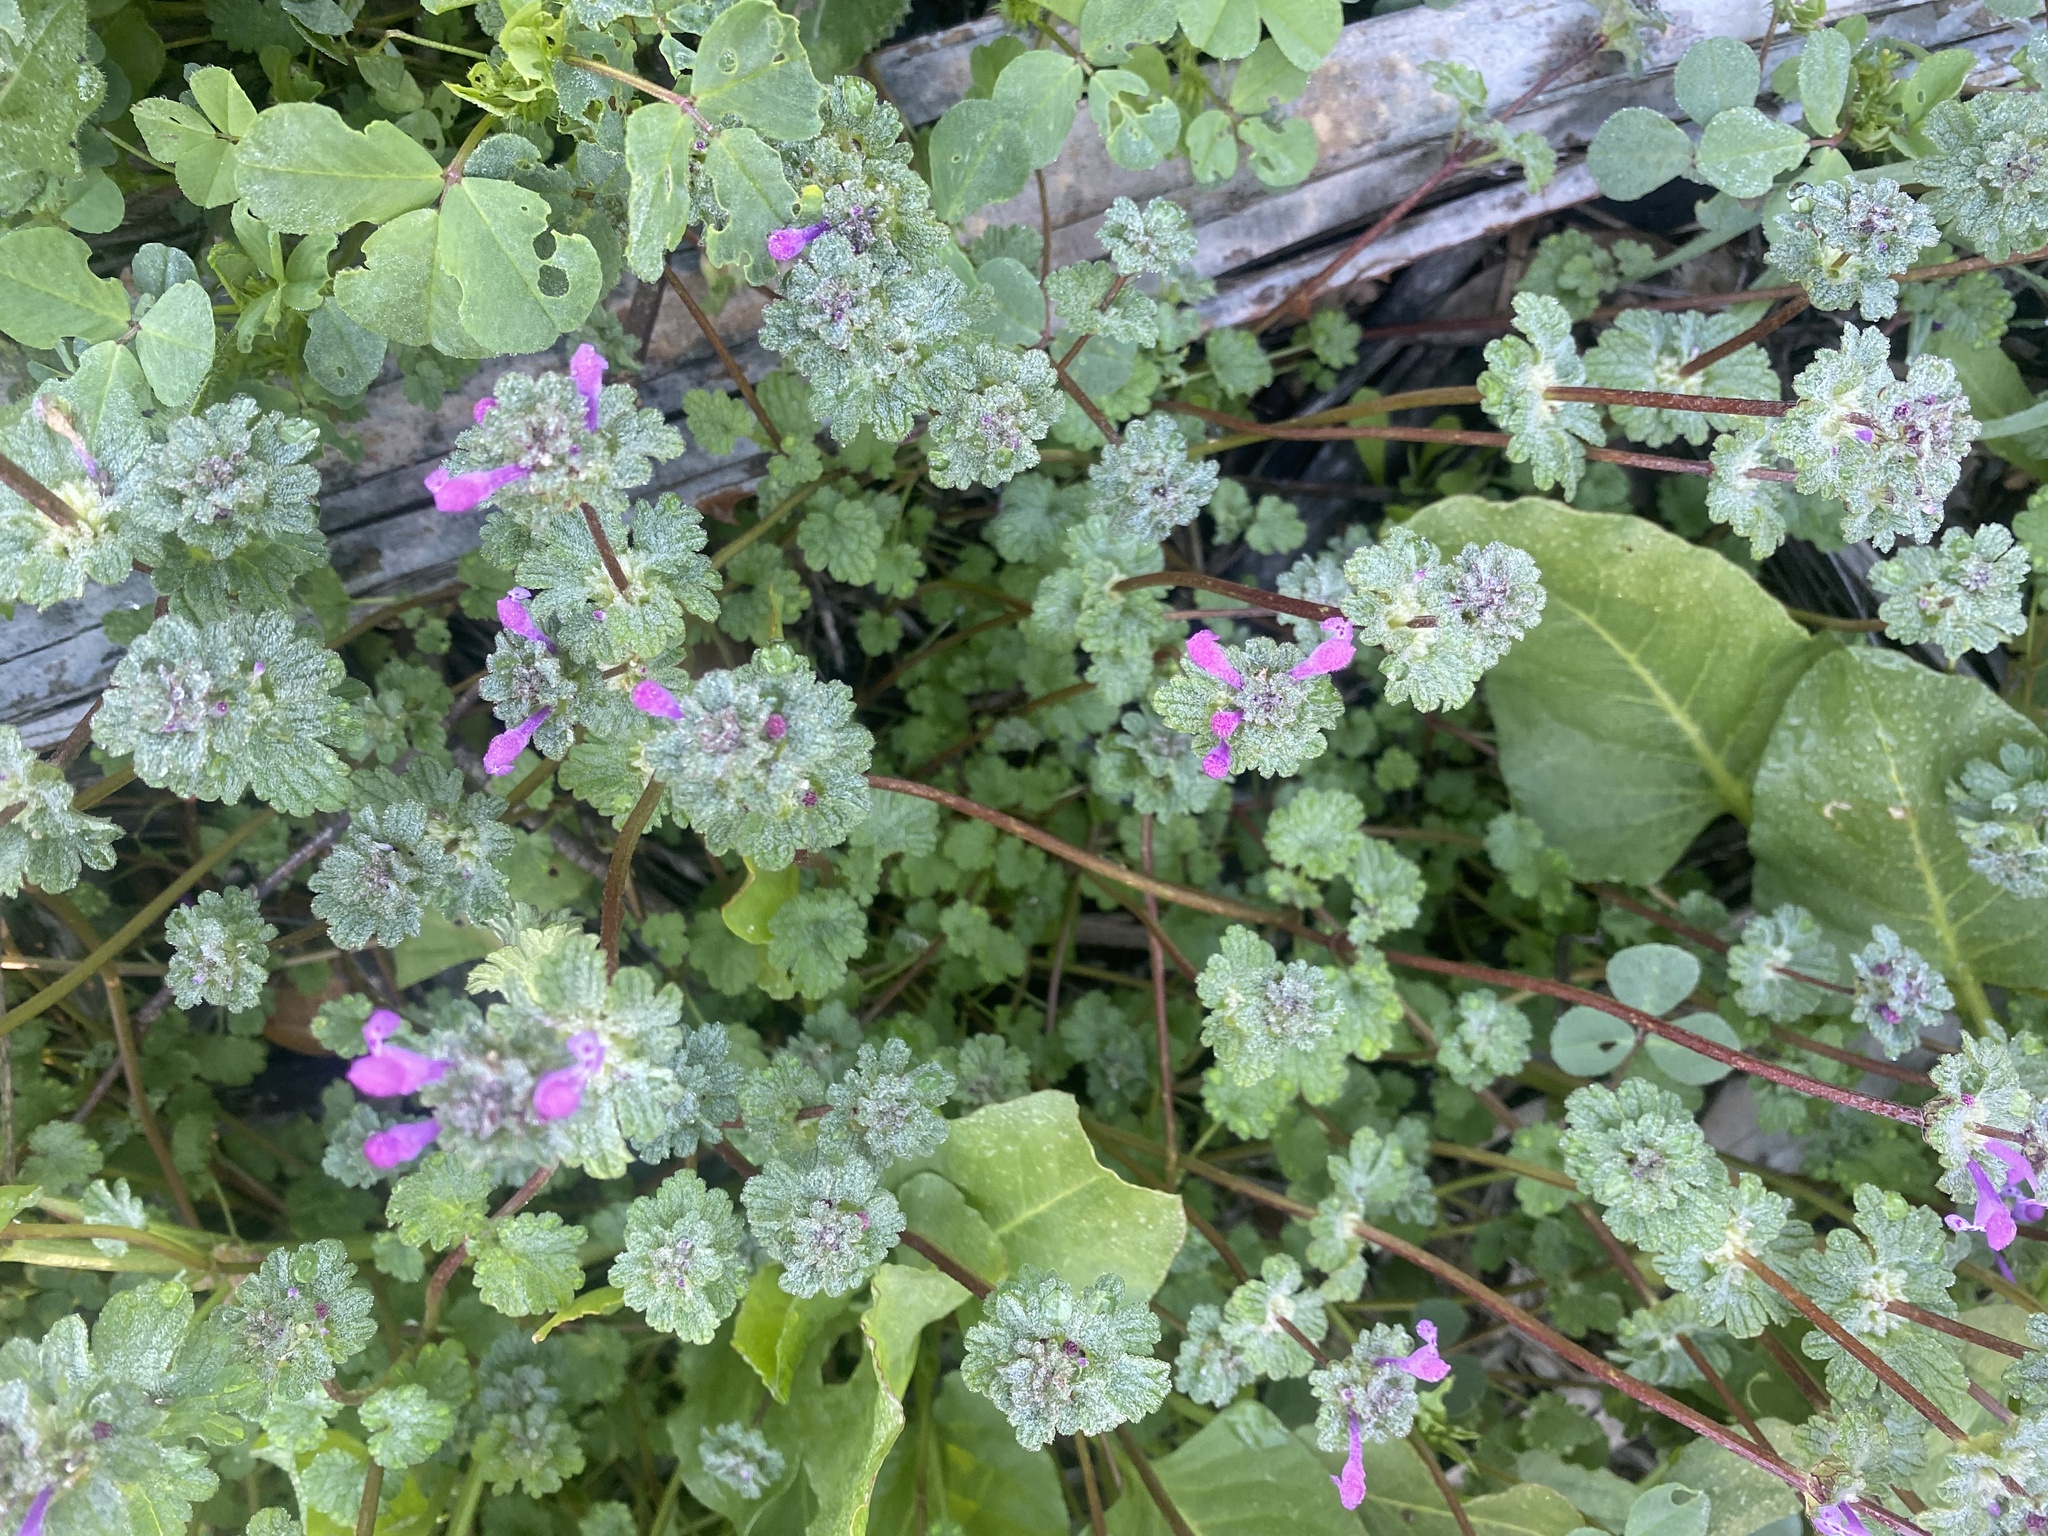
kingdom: Plantae
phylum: Tracheophyta
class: Magnoliopsida
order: Lamiales
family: Lamiaceae
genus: Lamium
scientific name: Lamium amplexicaule
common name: Henbit dead-nettle
